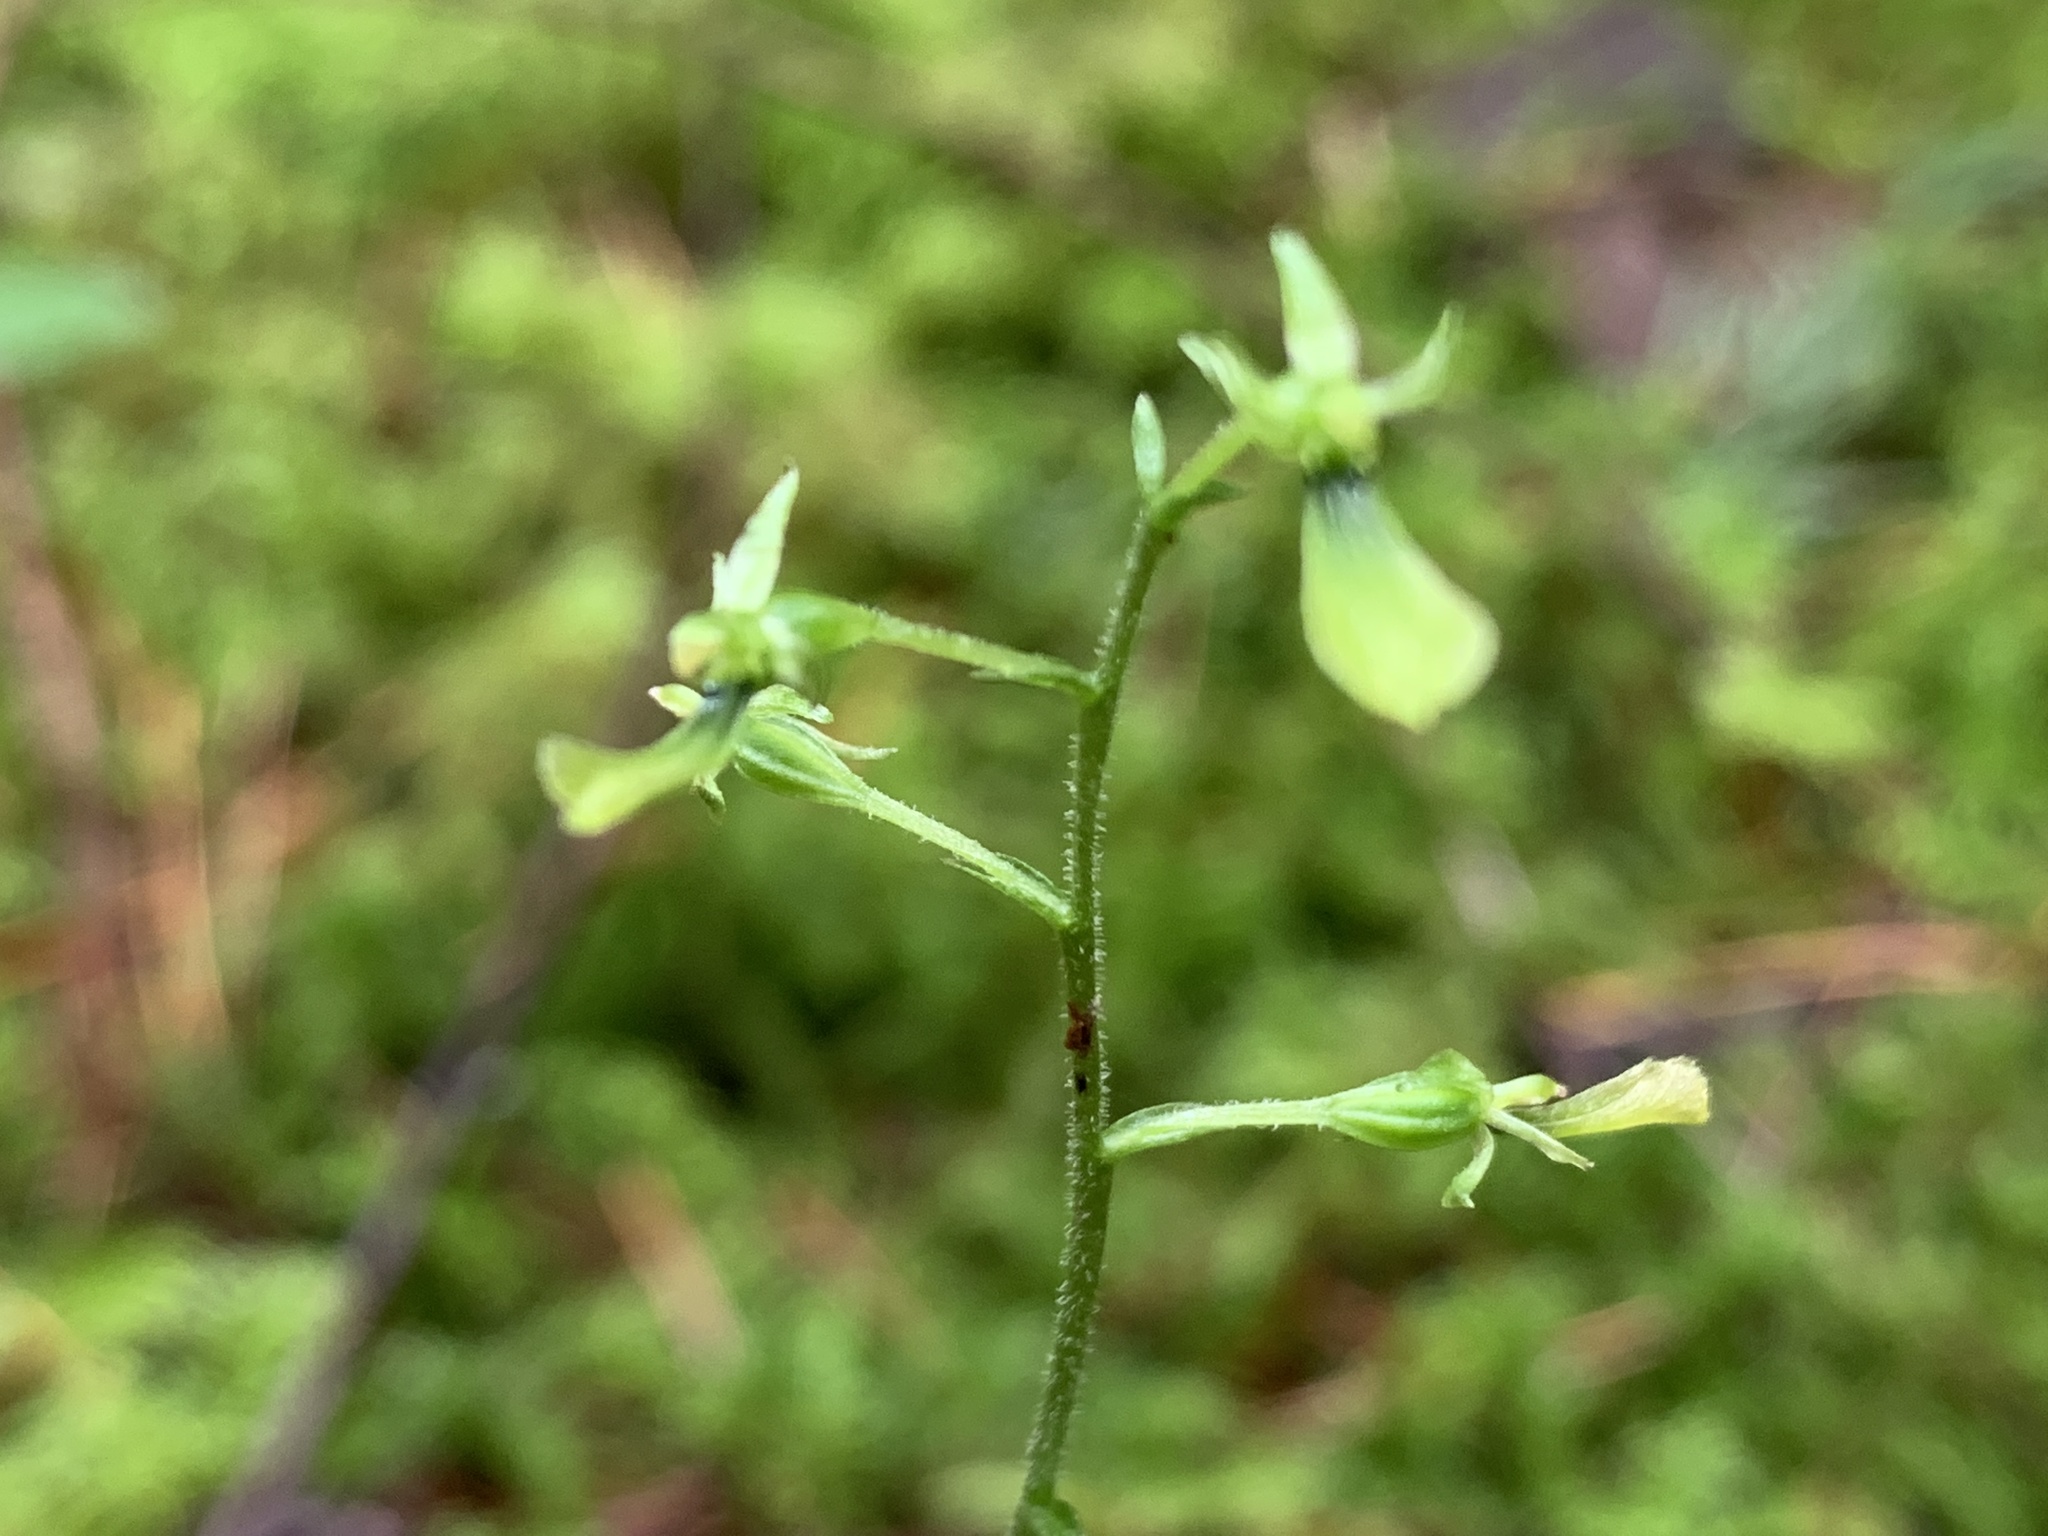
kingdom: Plantae
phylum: Tracheophyta
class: Liliopsida
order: Asparagales
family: Orchidaceae
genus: Neottia
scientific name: Neottia banksiana
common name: Northwestern twayblade
